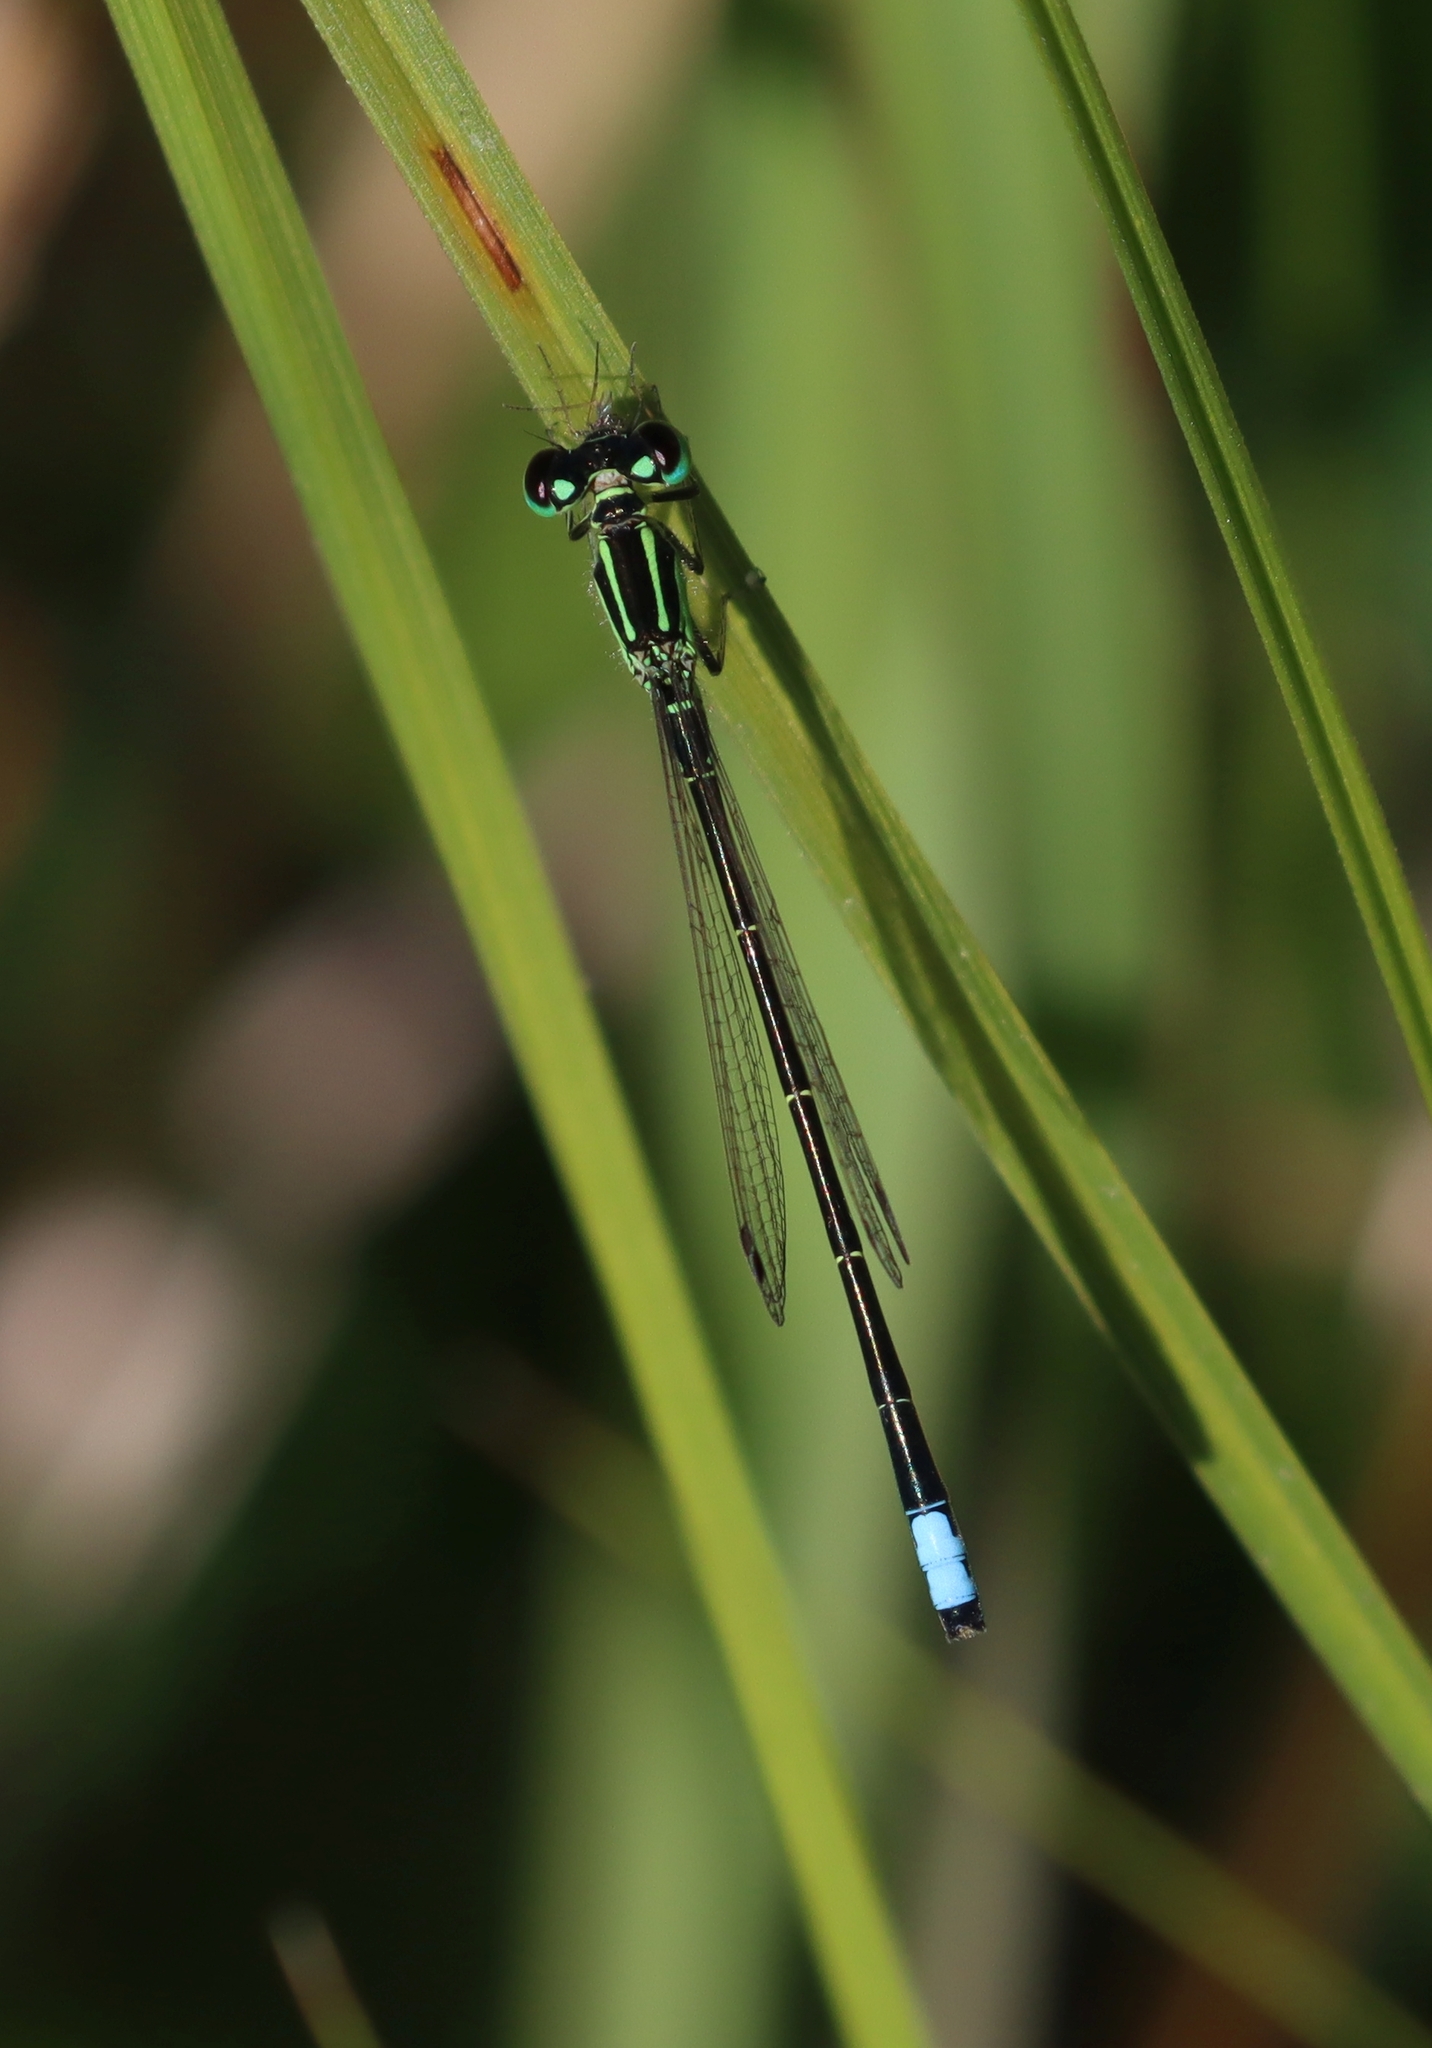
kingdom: Animalia
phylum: Arthropoda
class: Insecta
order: Odonata
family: Coenagrionidae
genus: Ischnura
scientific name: Ischnura verticalis
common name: Eastern forktail
